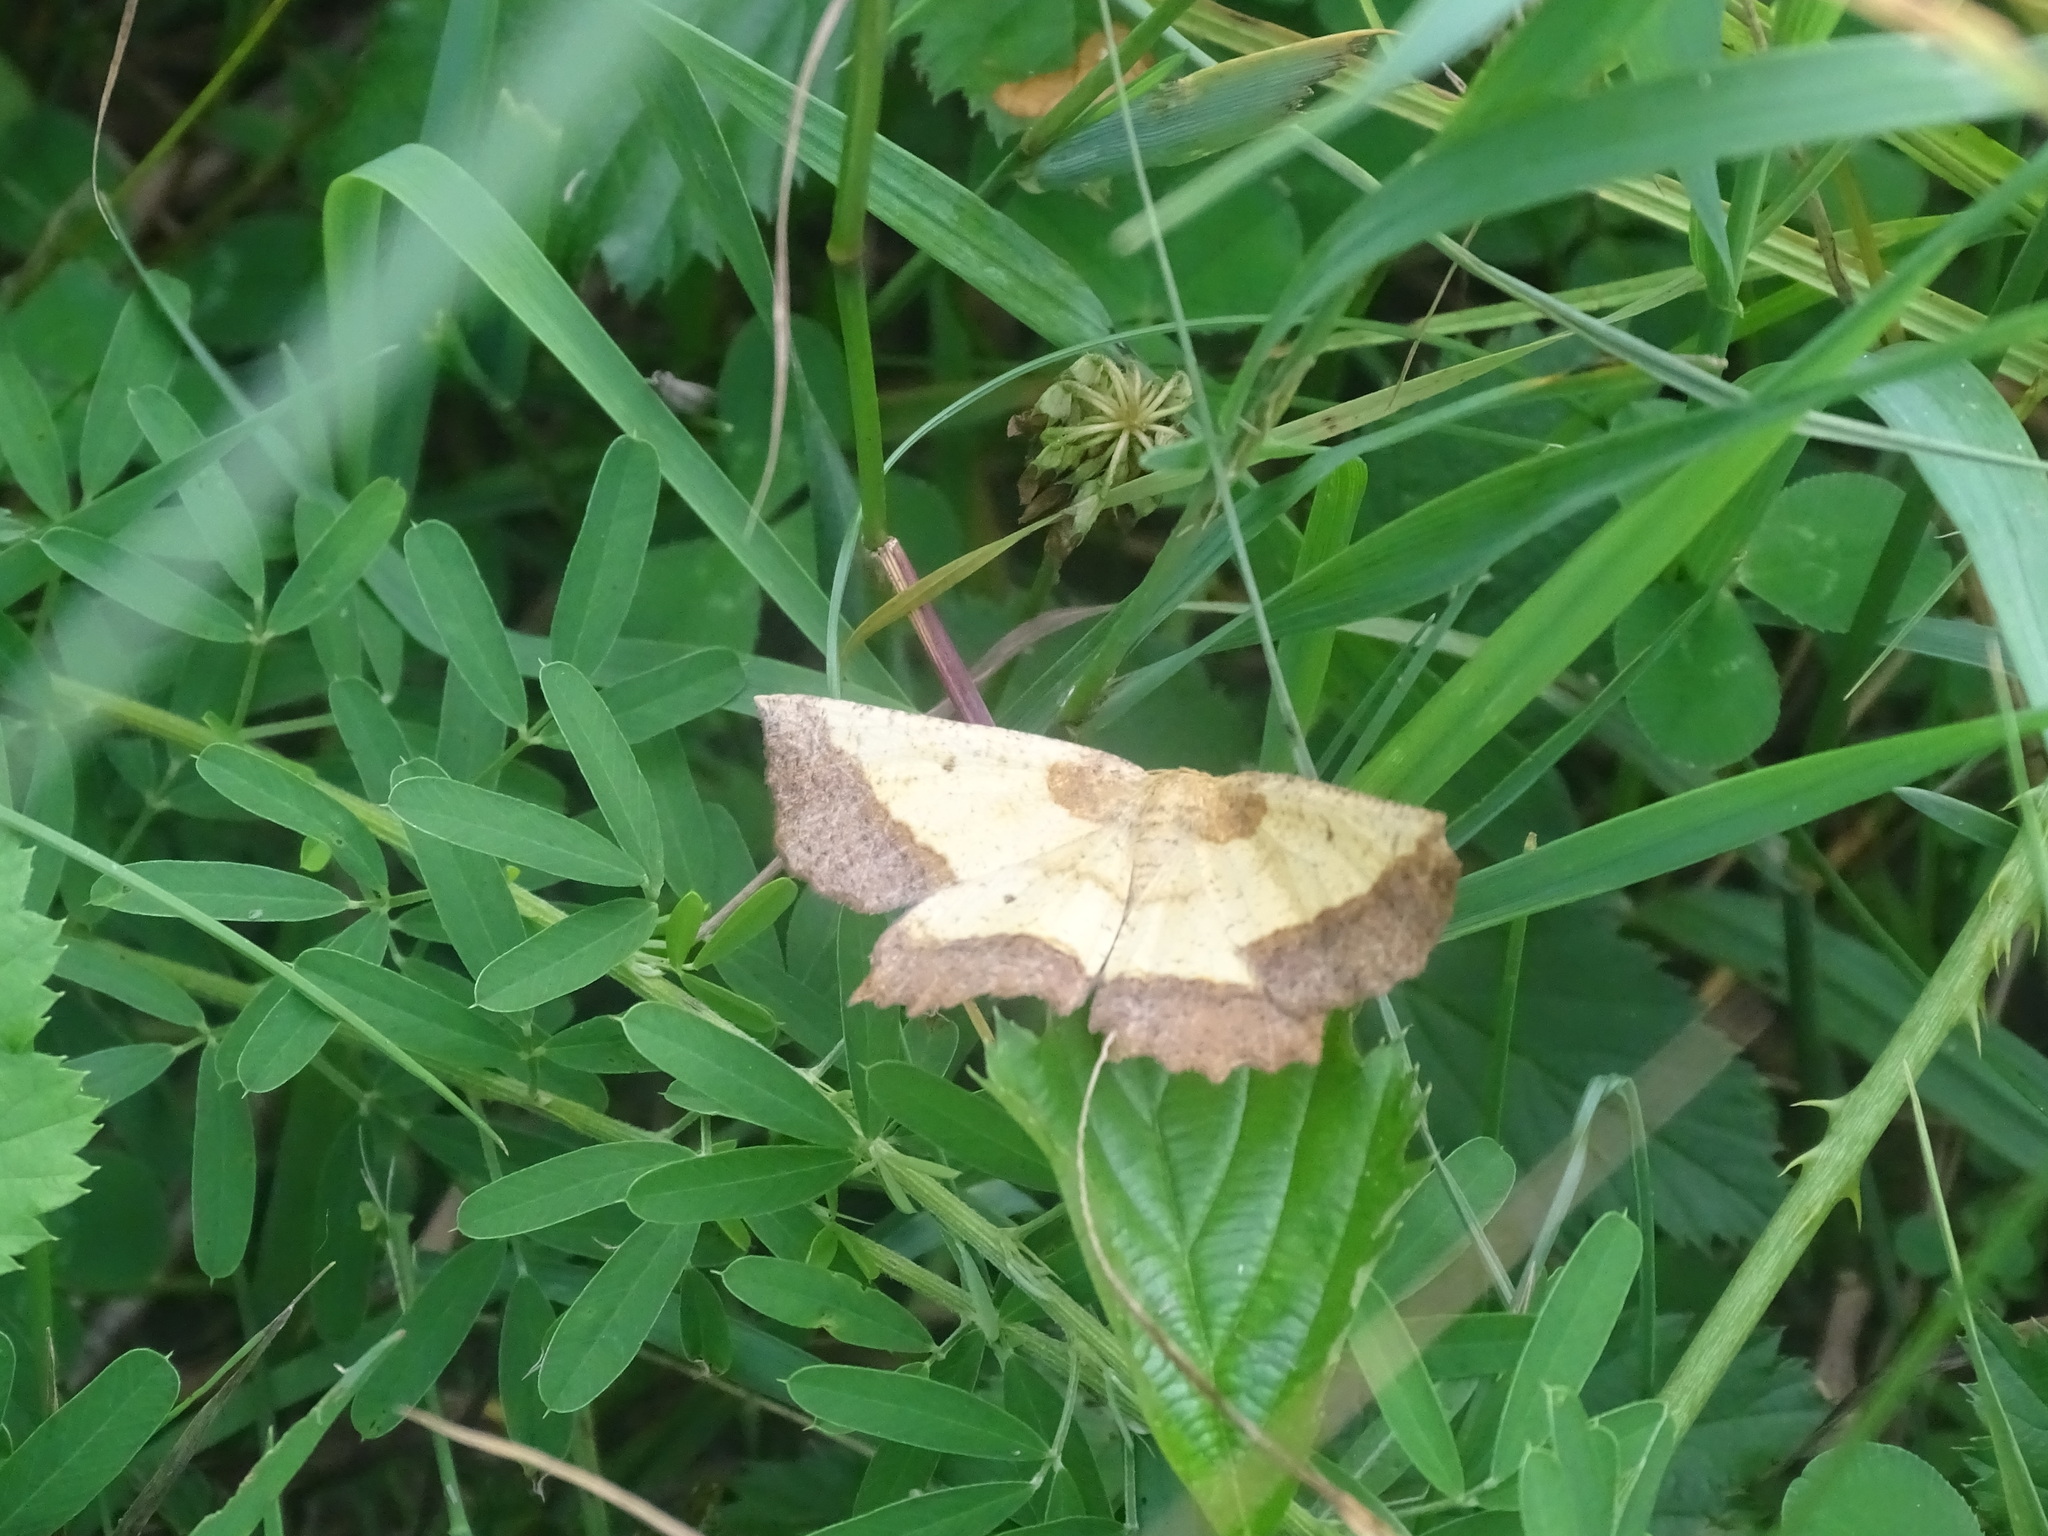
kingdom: Animalia
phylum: Arthropoda
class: Insecta
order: Lepidoptera
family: Geometridae
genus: Euchlaena
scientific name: Euchlaena serrata
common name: Saw wing
